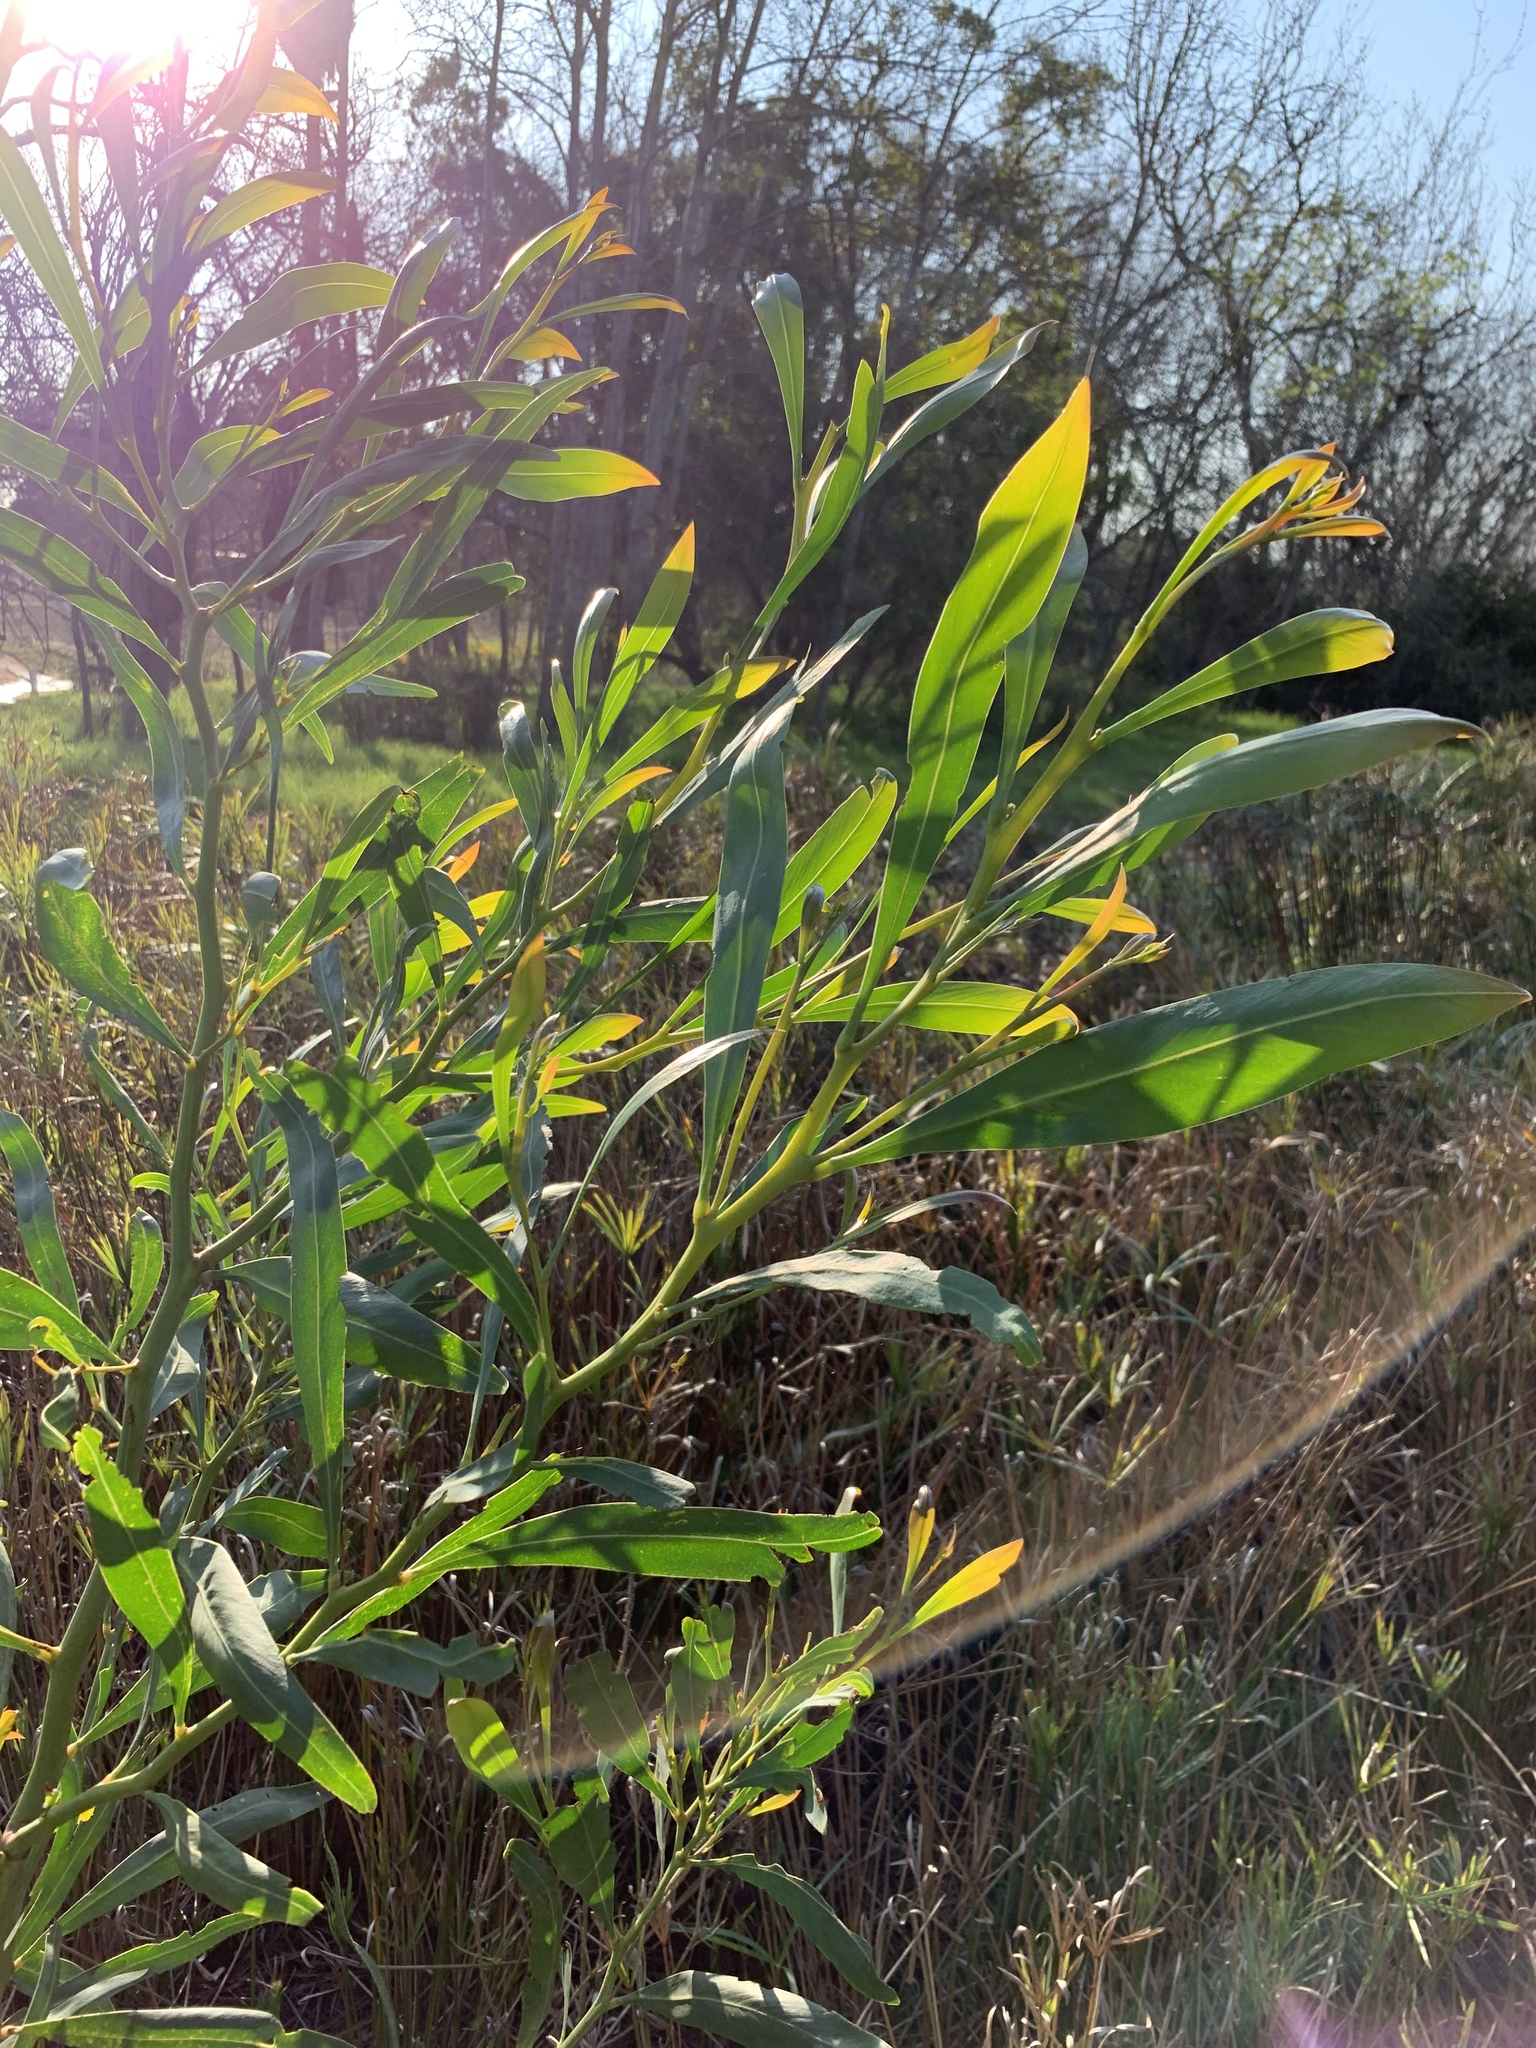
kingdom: Plantae
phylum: Tracheophyta
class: Magnoliopsida
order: Fabales
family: Fabaceae
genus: Acacia
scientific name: Acacia saligna
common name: Orange wattle
